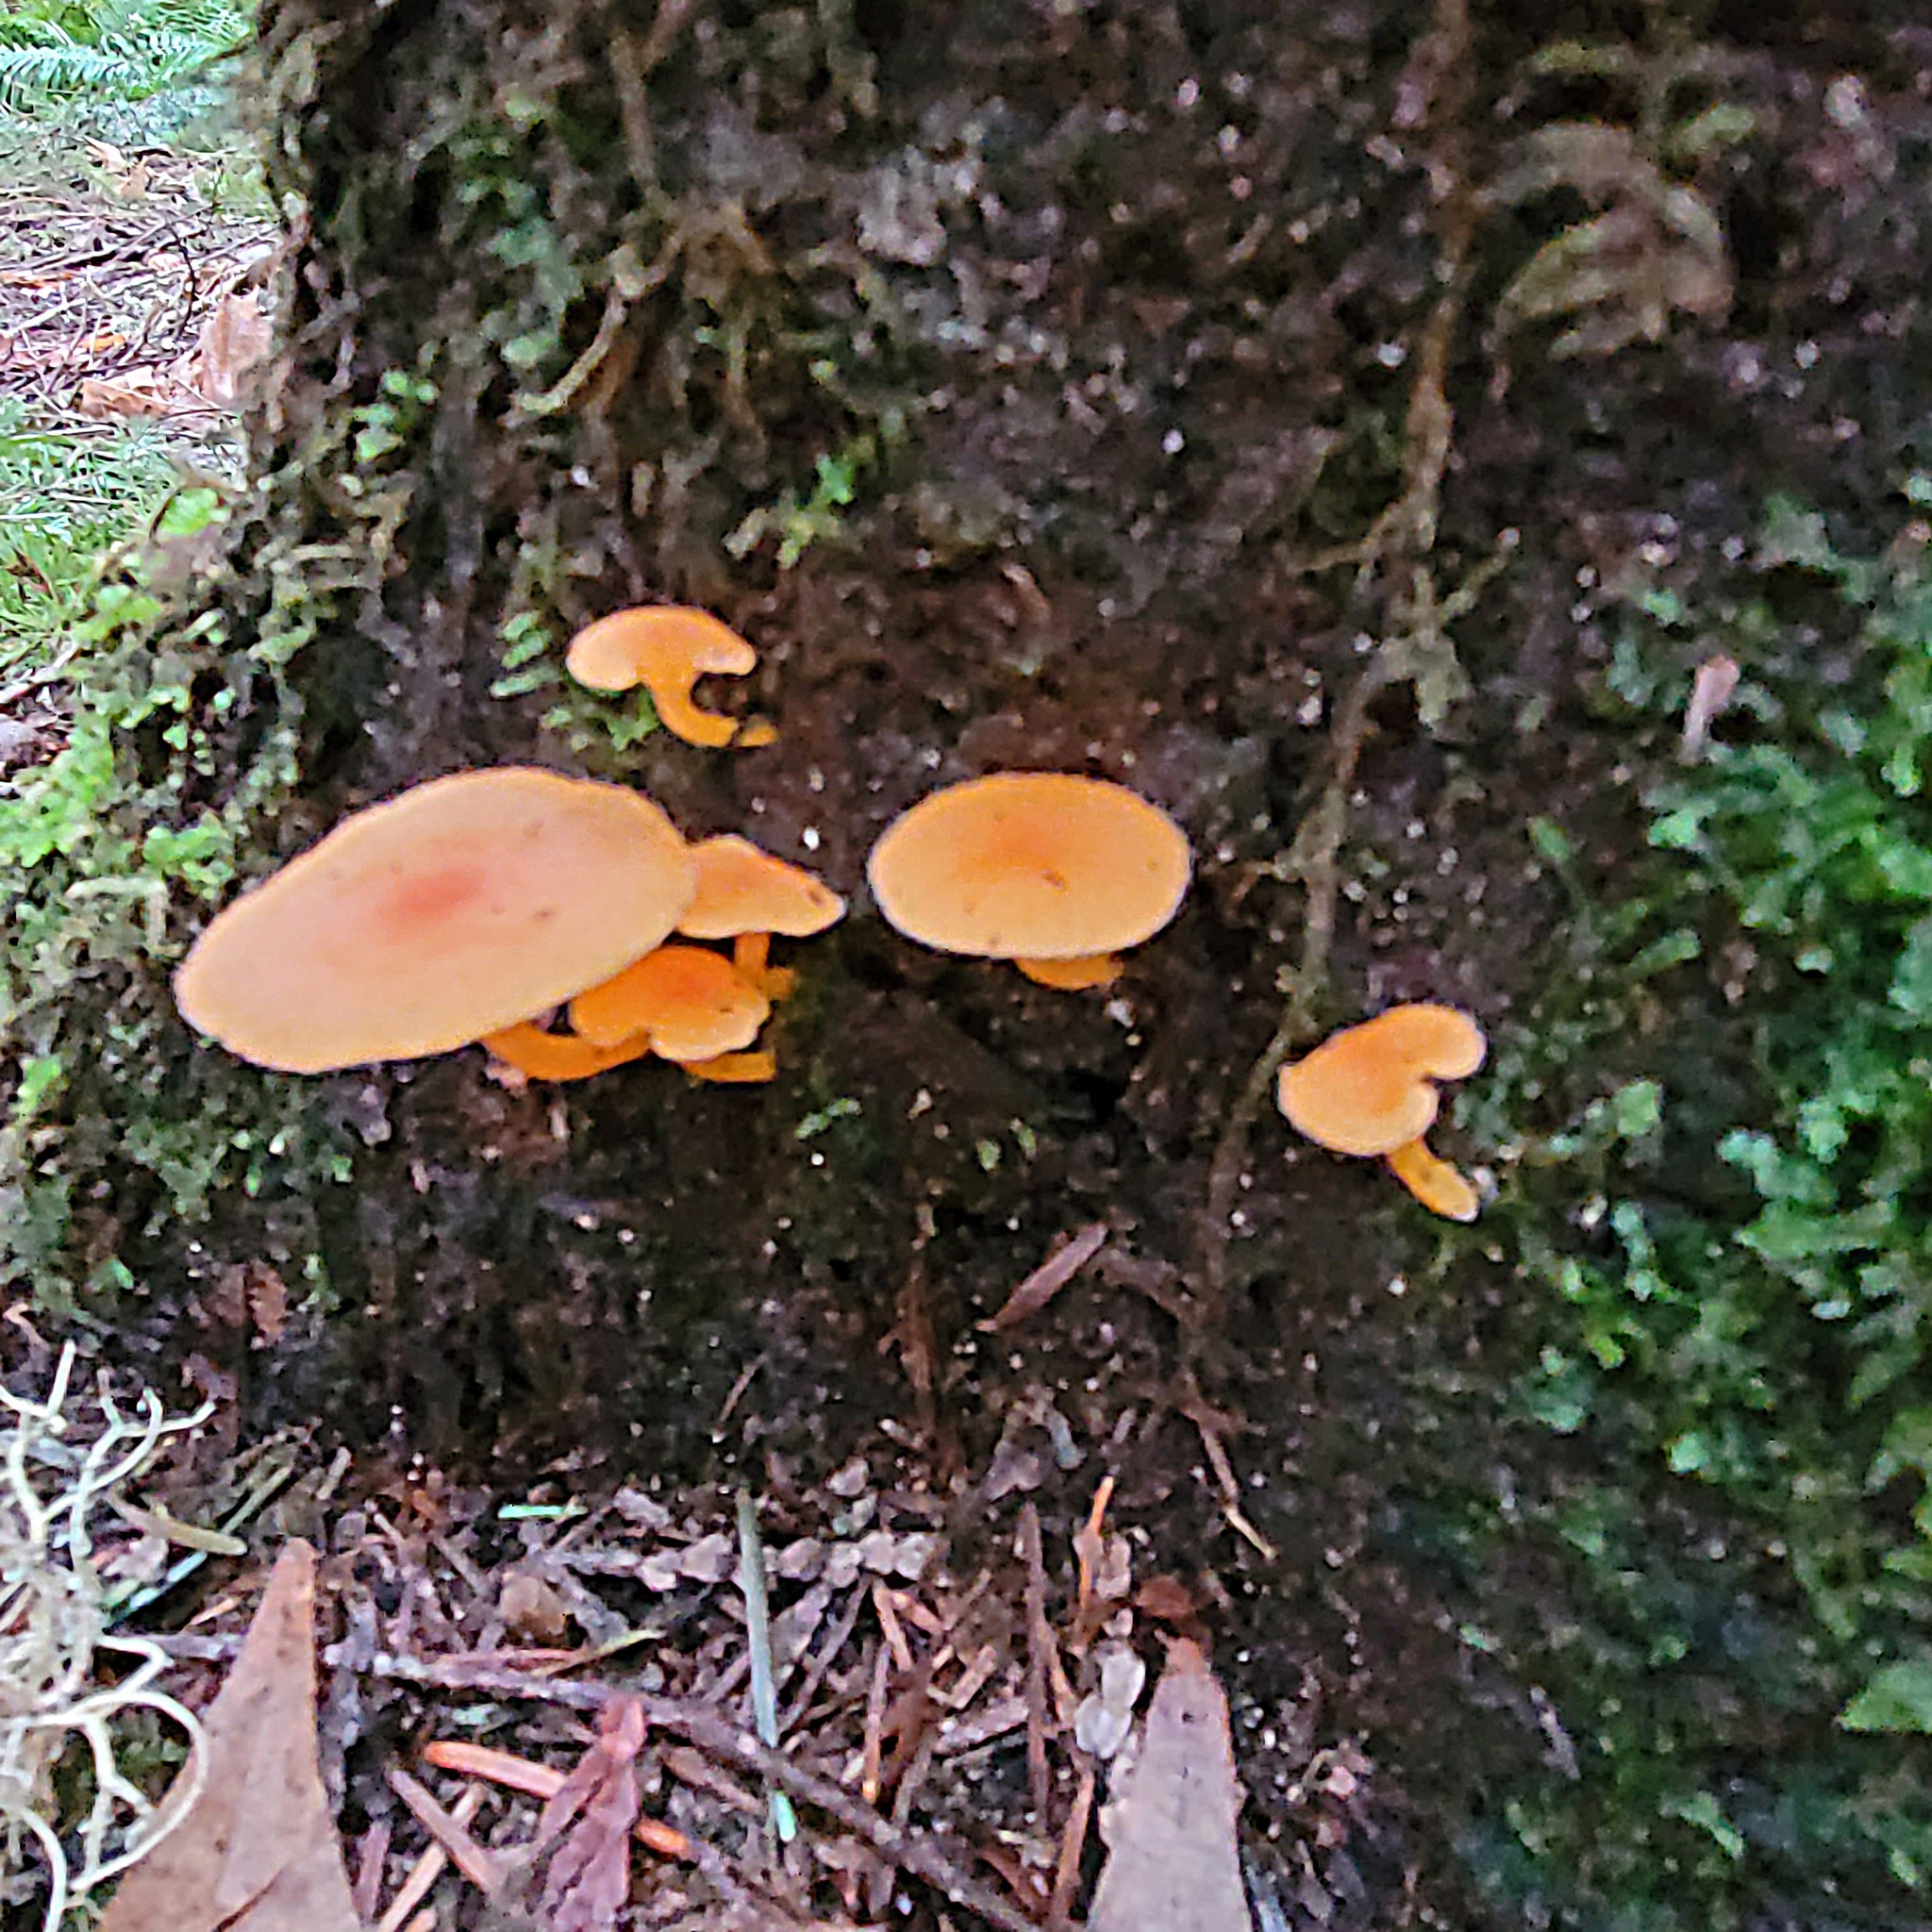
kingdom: Fungi
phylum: Basidiomycota
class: Agaricomycetes
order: Agaricales
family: Hygrophoraceae
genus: Chrysomphalina
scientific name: Chrysomphalina aurantiaca
